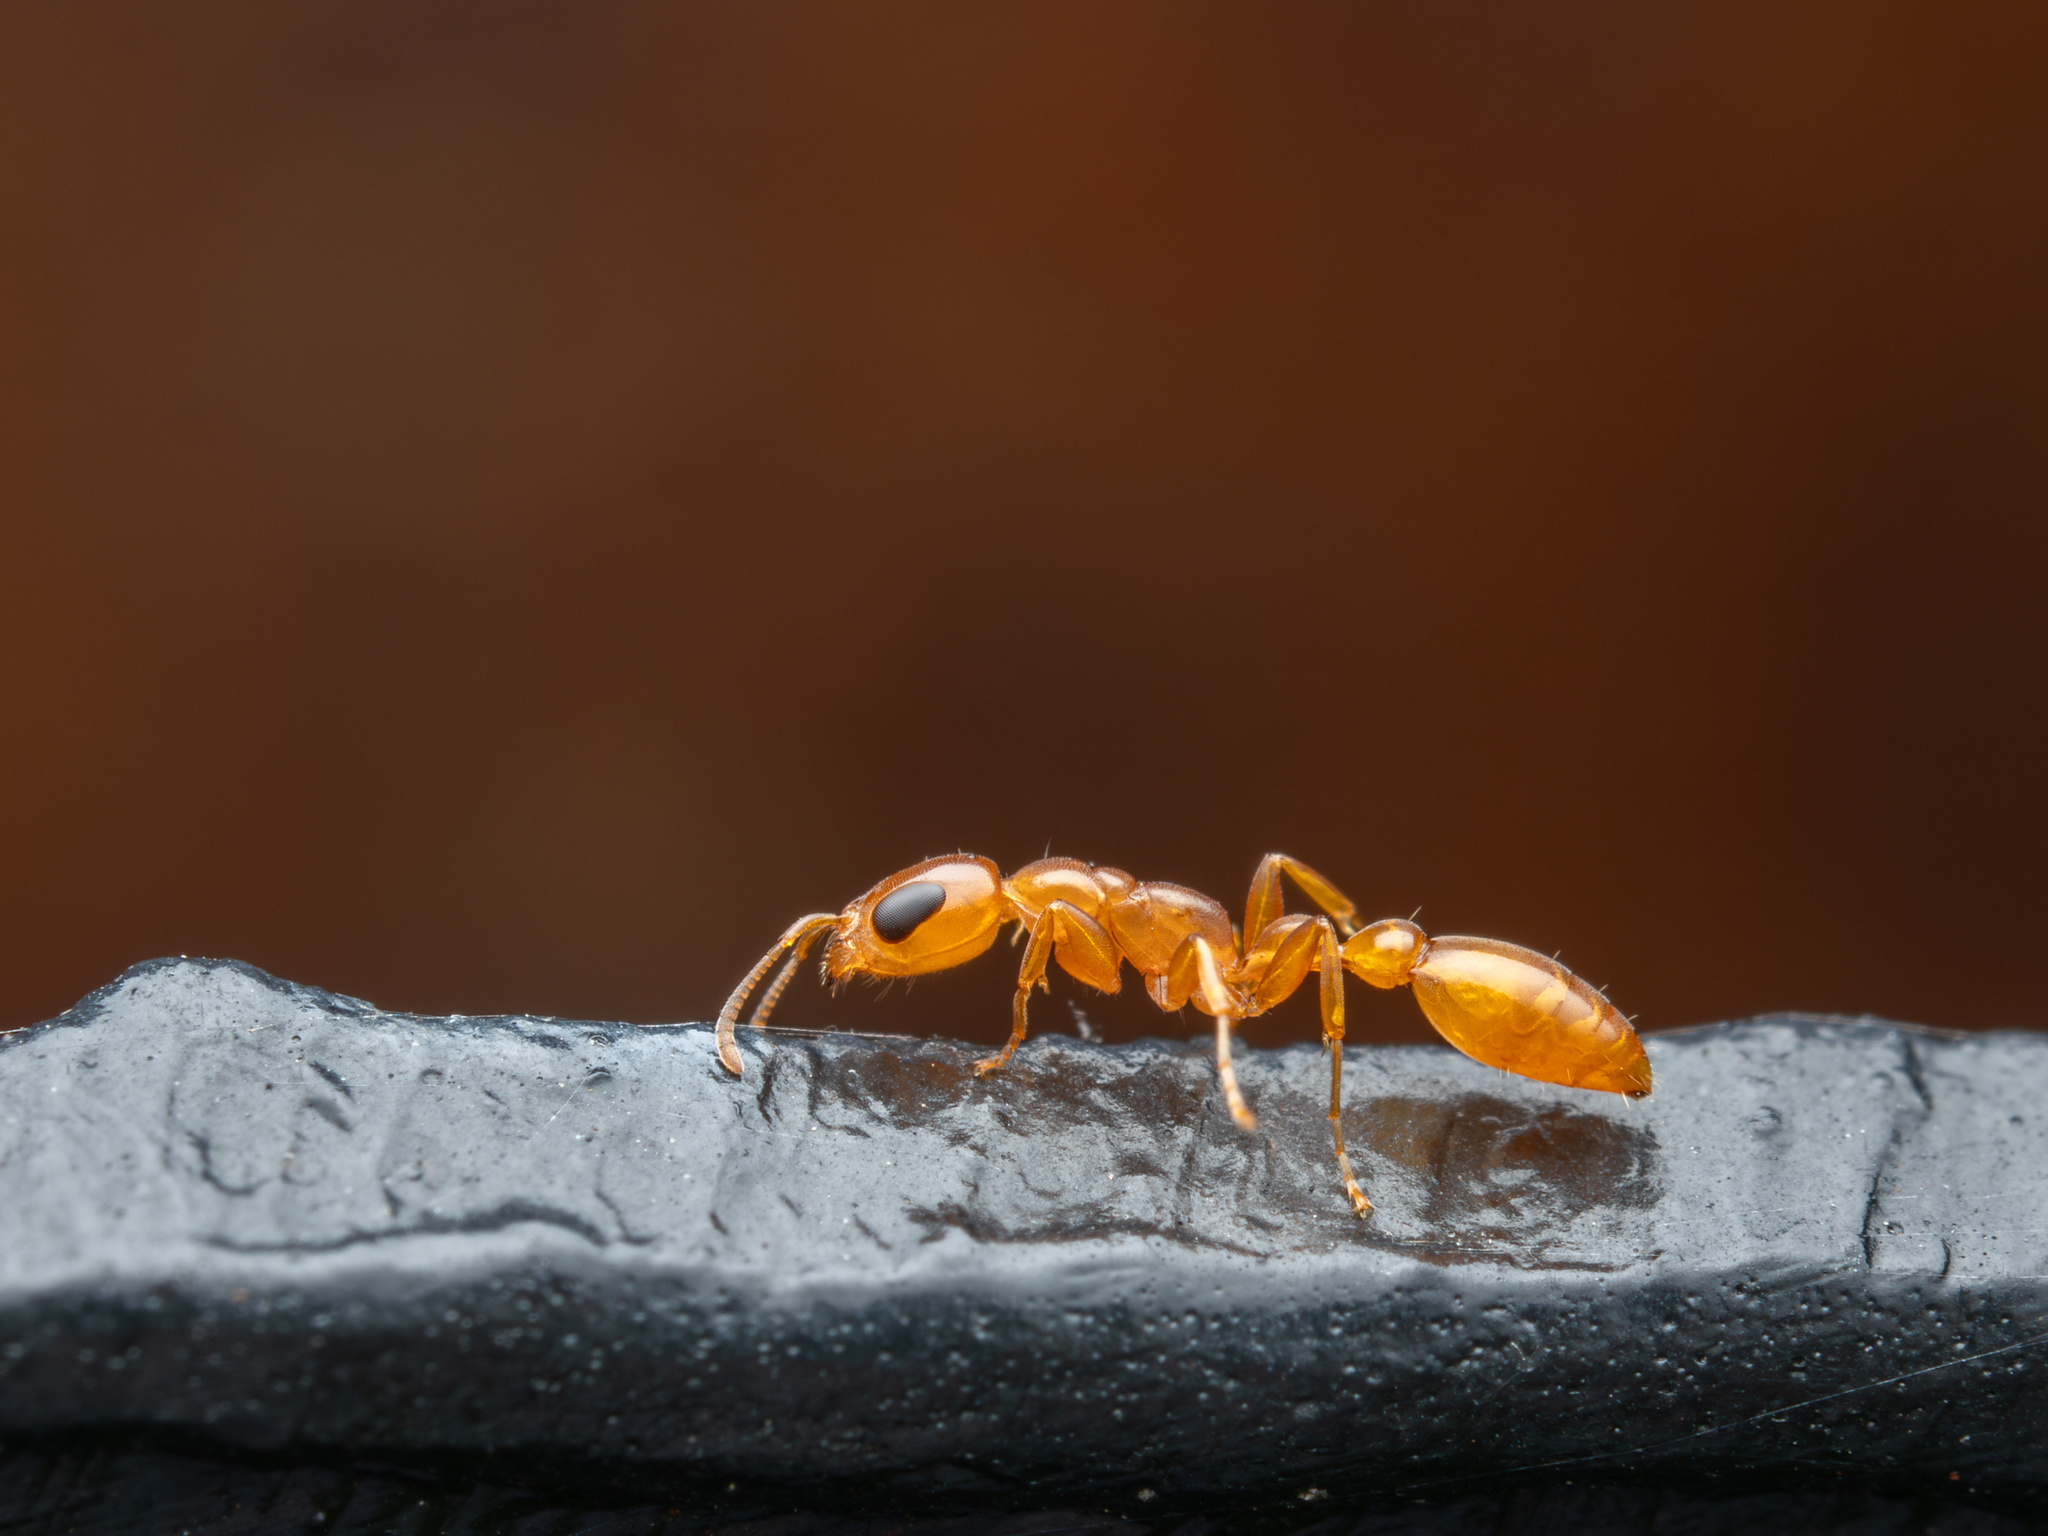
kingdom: Animalia
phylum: Arthropoda
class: Insecta
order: Hymenoptera
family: Formicidae
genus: Pseudomyrmex
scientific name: Pseudomyrmex pallidus
